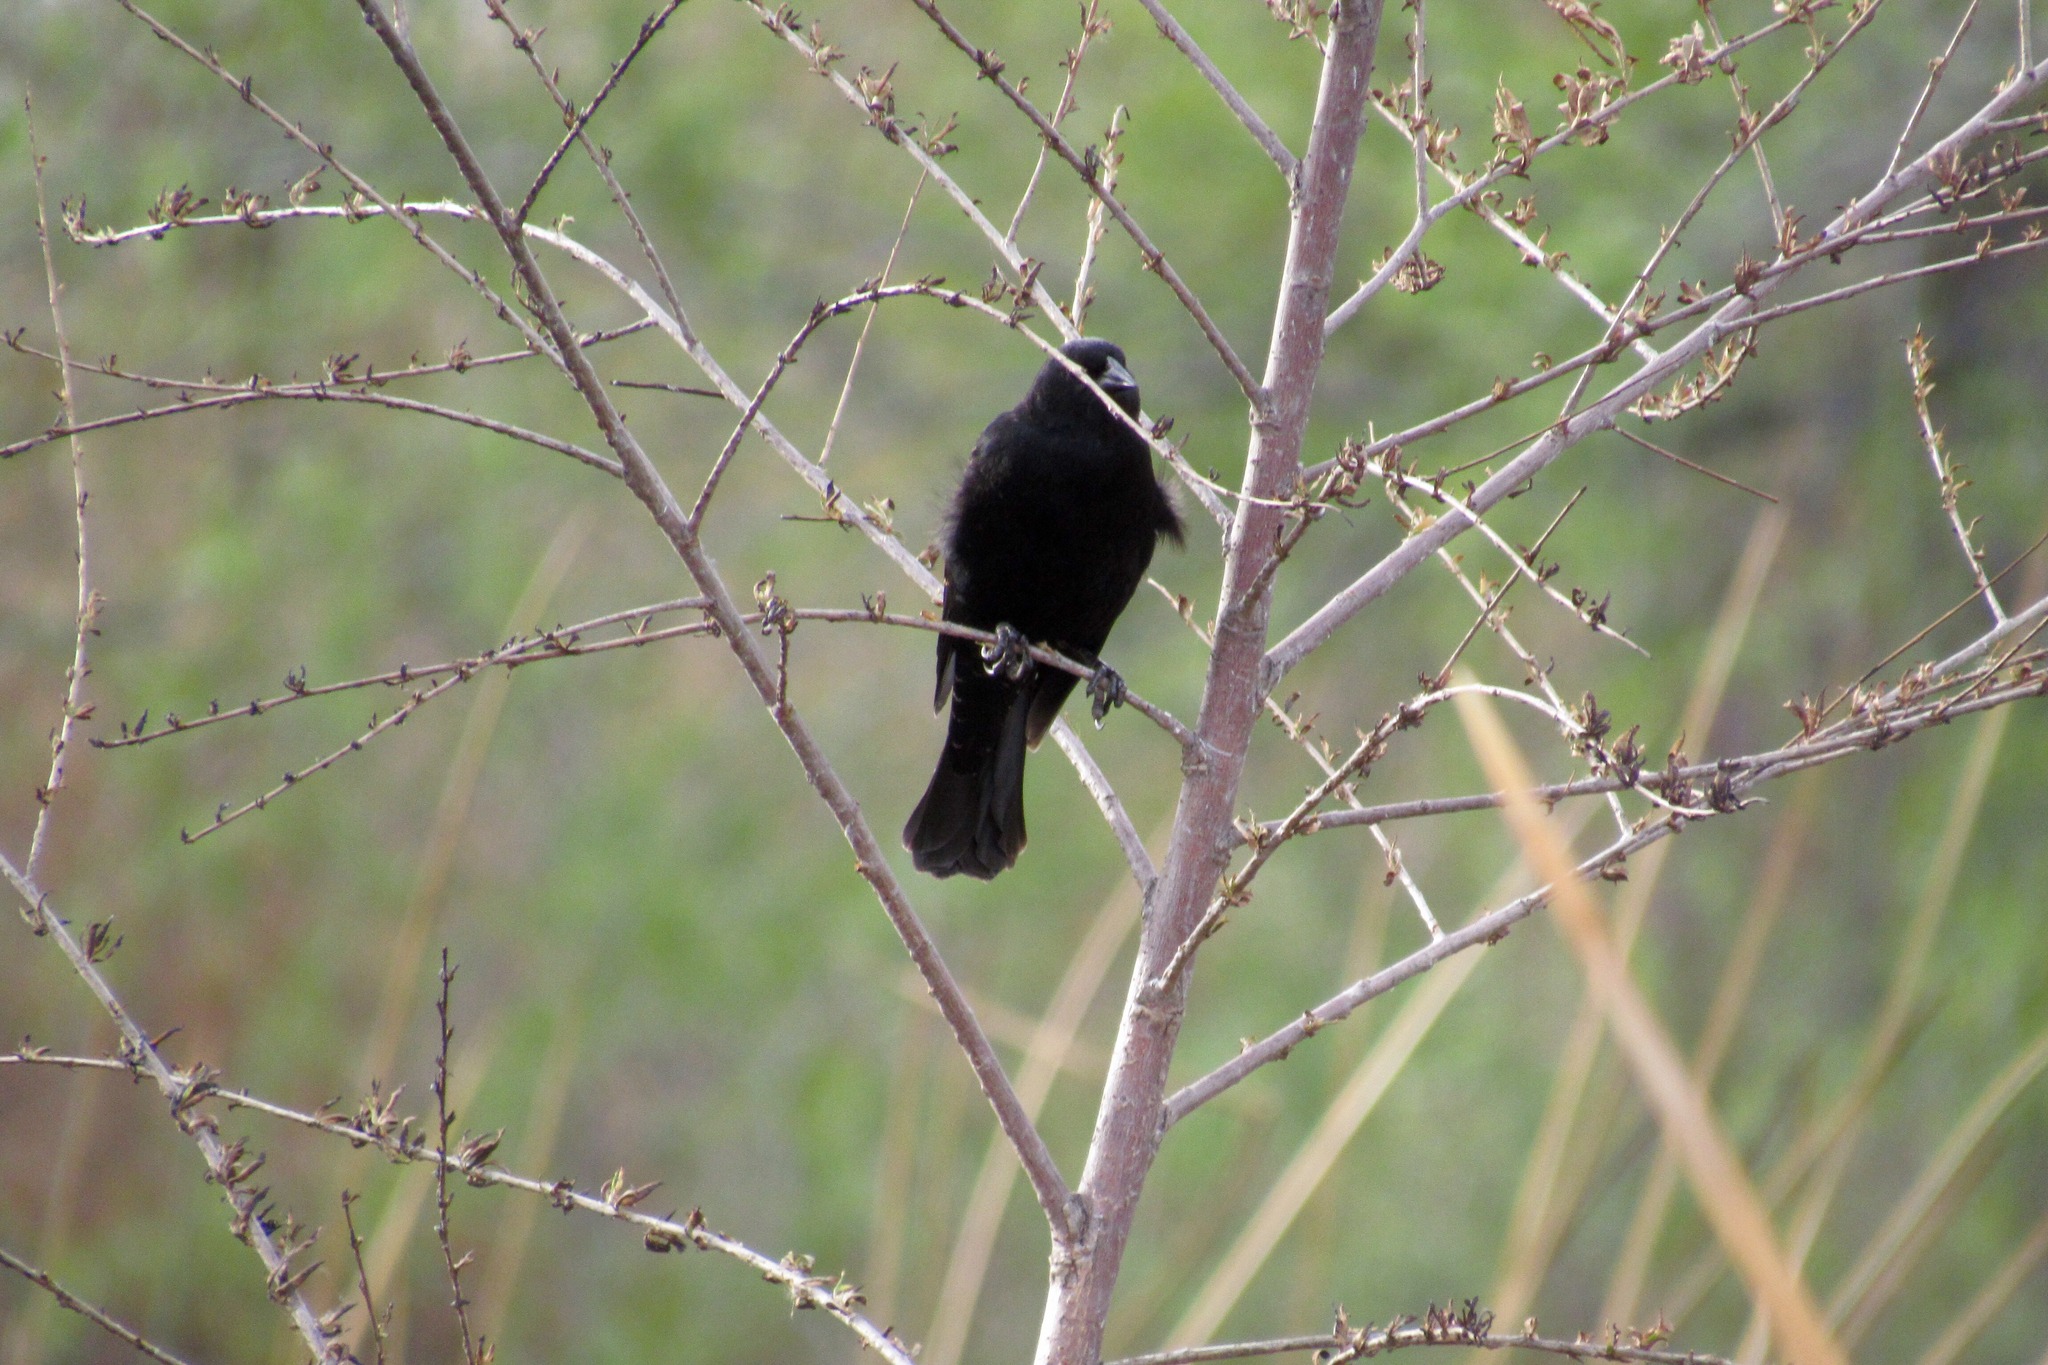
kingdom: Animalia
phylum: Chordata
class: Aves
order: Passeriformes
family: Icteridae
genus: Agelaius
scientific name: Agelaius phoeniceus
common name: Red-winged blackbird
